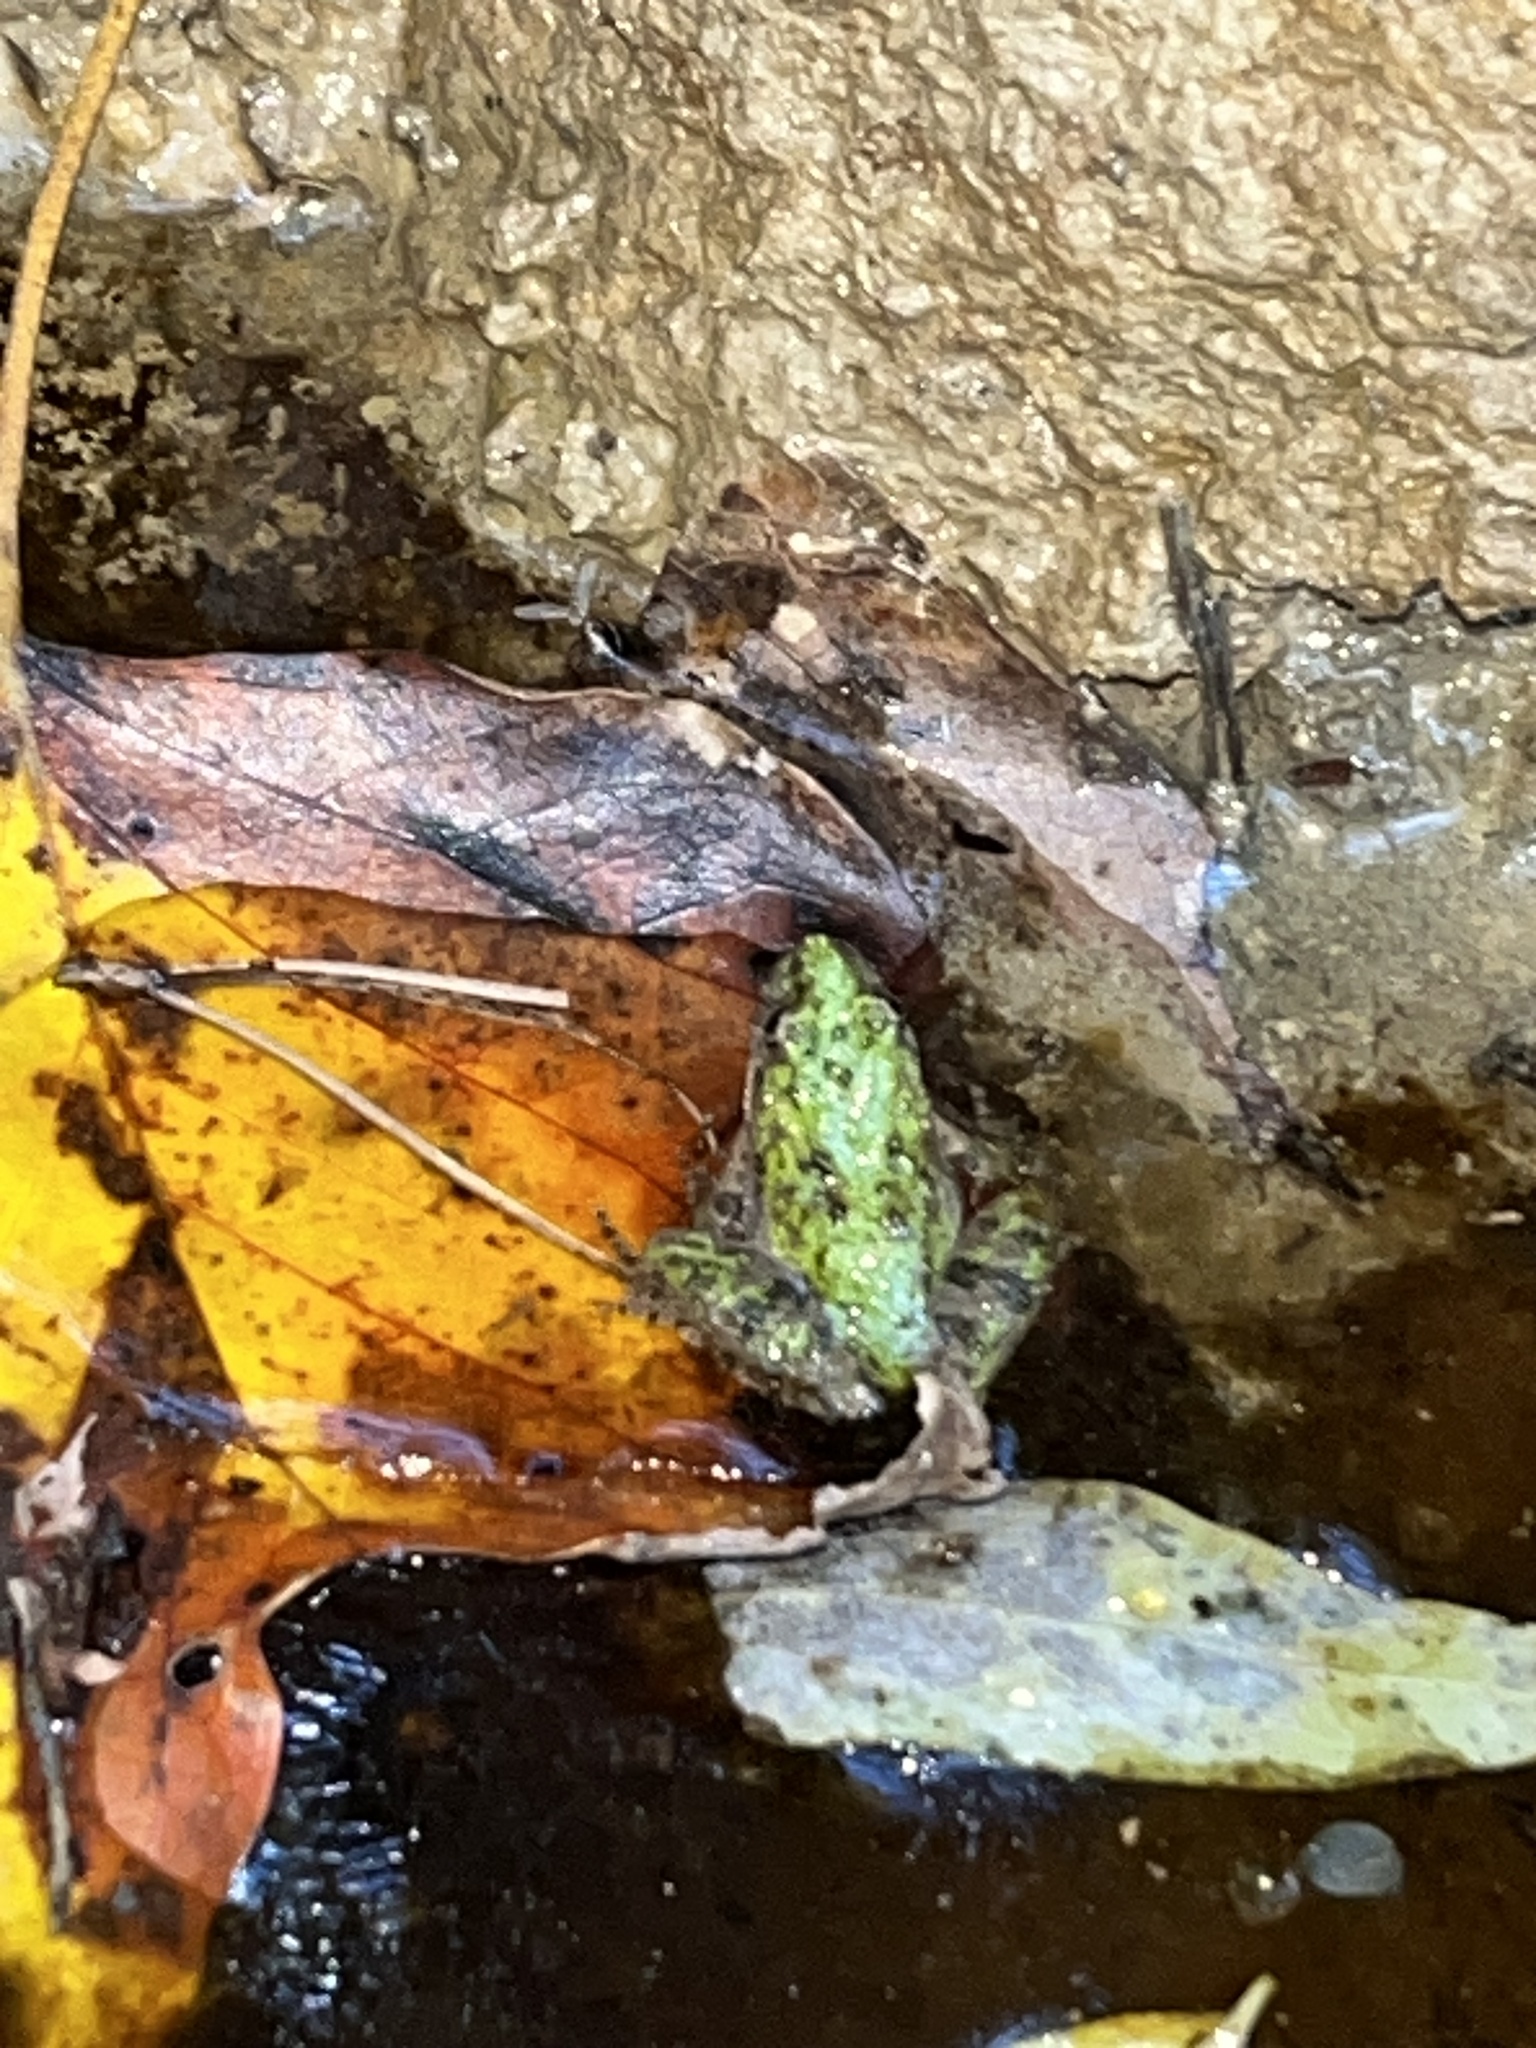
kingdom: Animalia
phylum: Chordata
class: Amphibia
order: Anura
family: Hylidae
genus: Acris
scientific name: Acris crepitans
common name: Northern cricket frog
